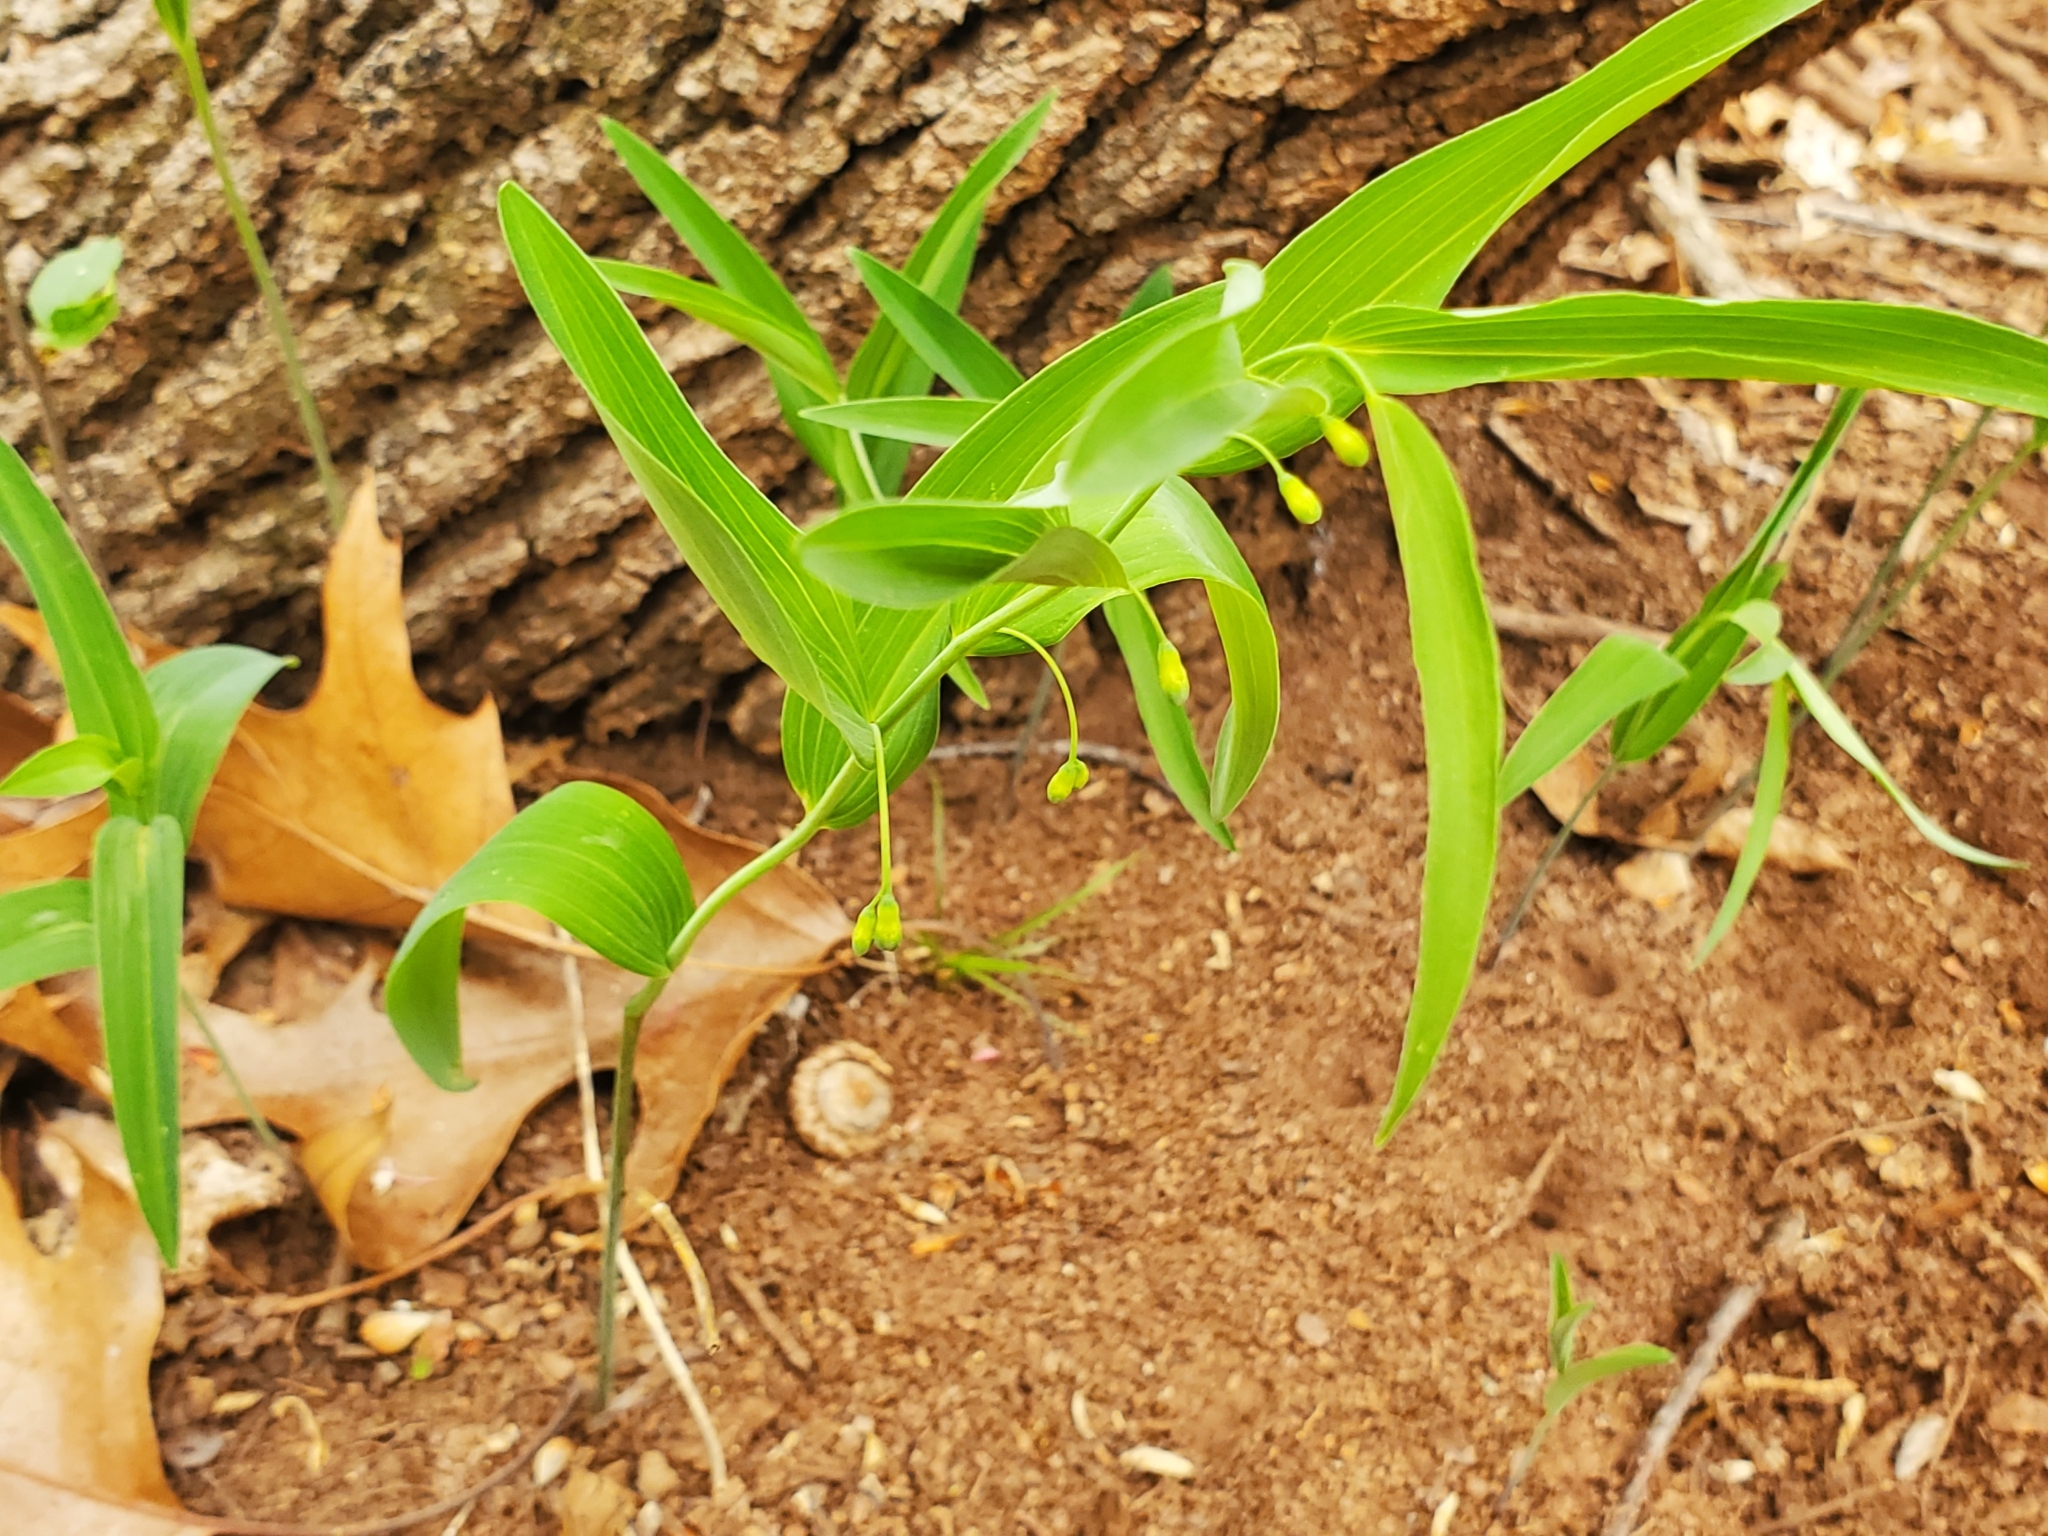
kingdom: Plantae
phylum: Tracheophyta
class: Liliopsida
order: Asparagales
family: Asparagaceae
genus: Polygonatum
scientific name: Polygonatum biflorum
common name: American solomon's-seal
